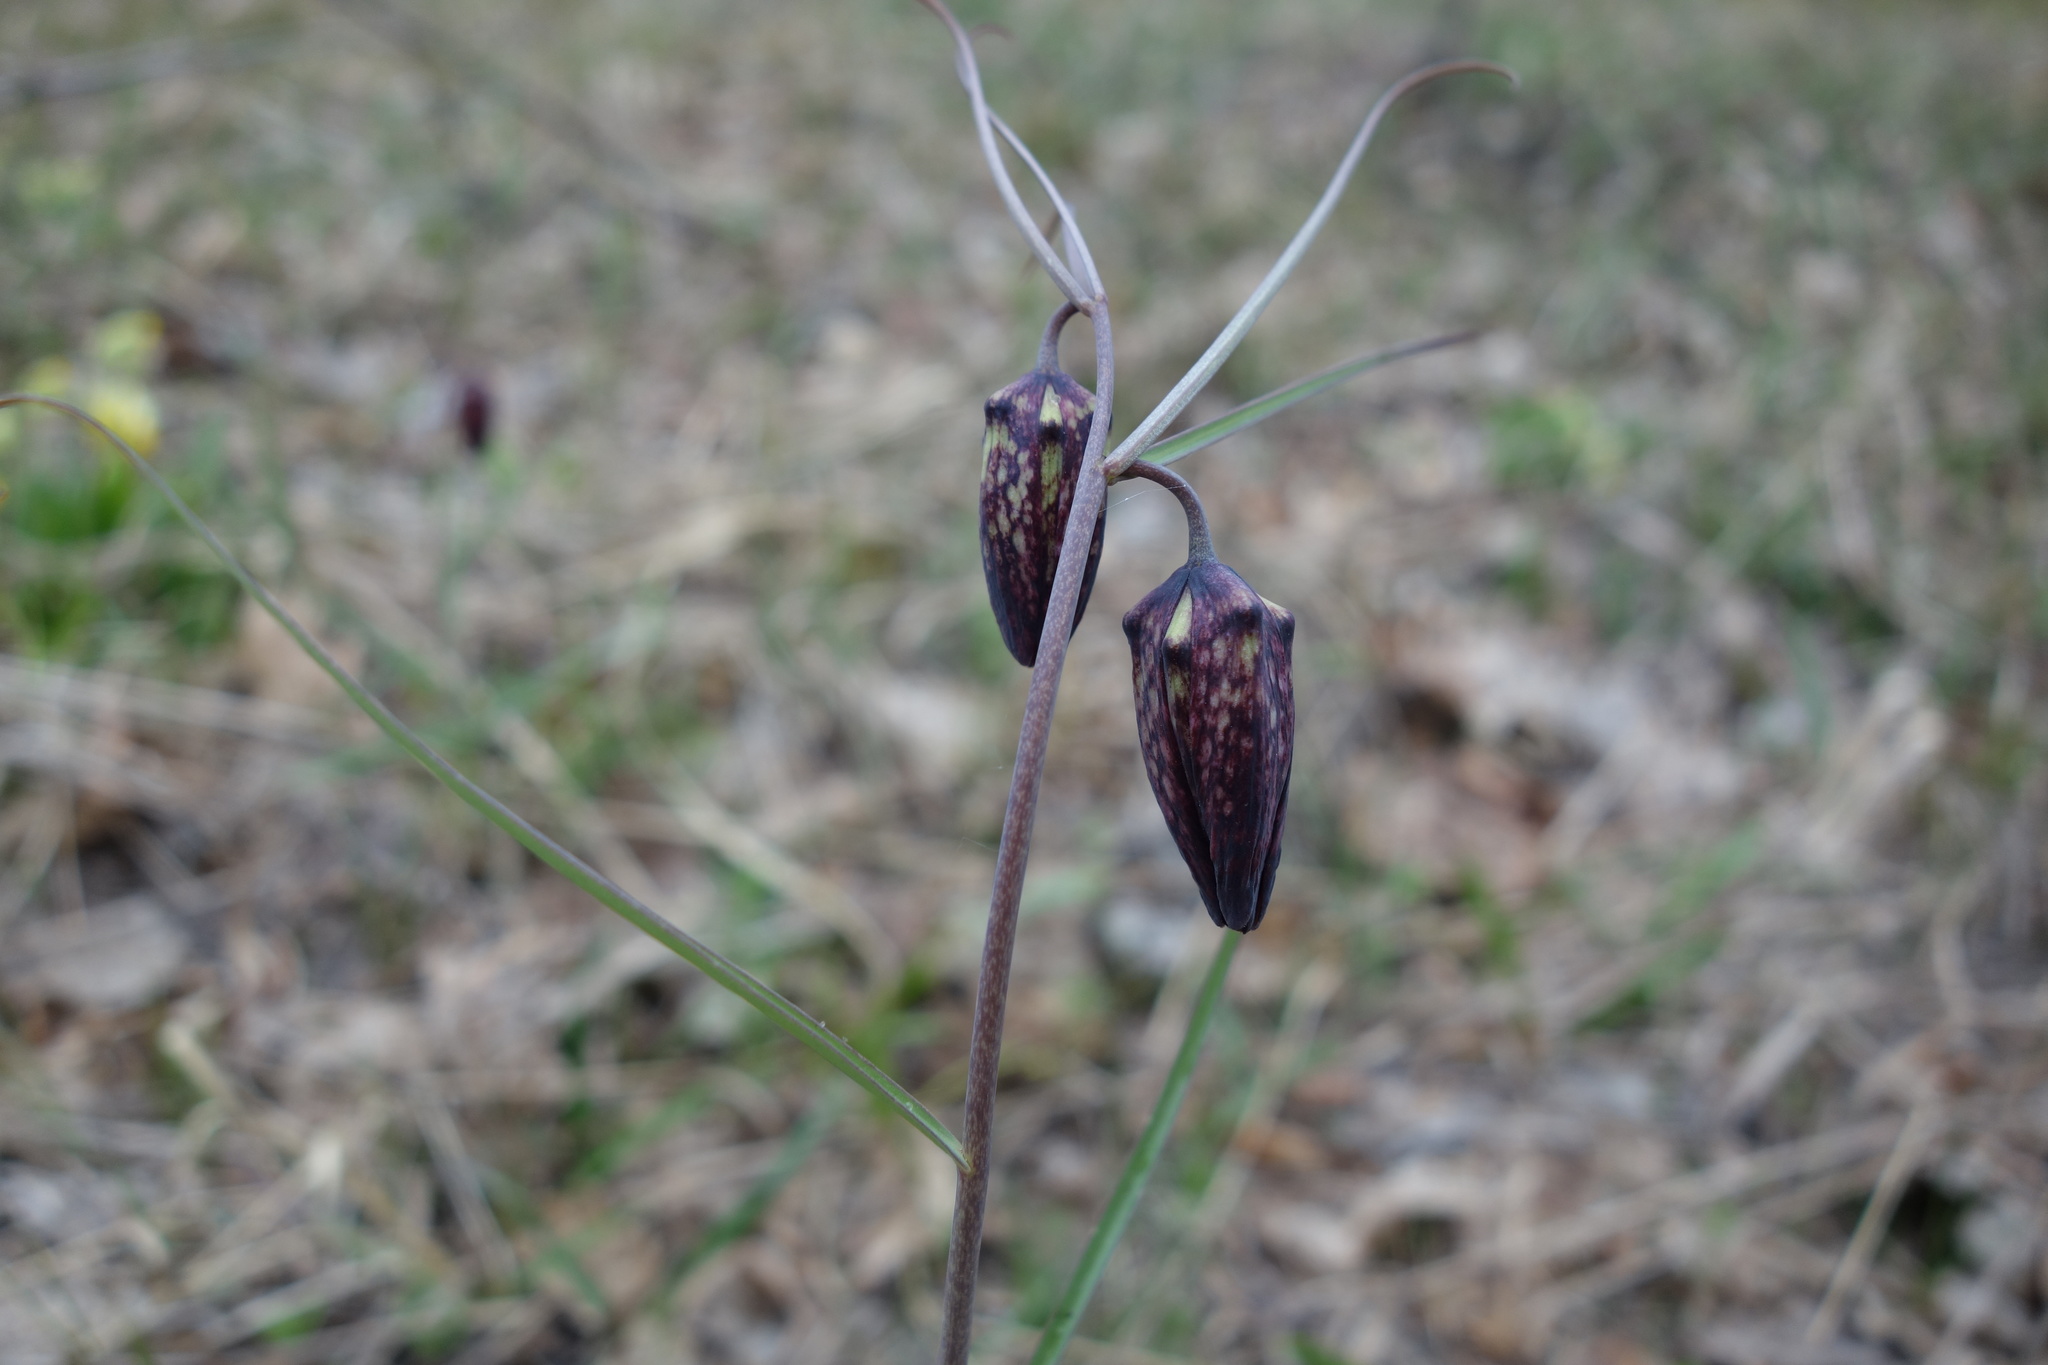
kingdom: Plantae
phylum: Tracheophyta
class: Liliopsida
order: Liliales
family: Liliaceae
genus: Fritillaria
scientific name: Fritillaria ruthenica
